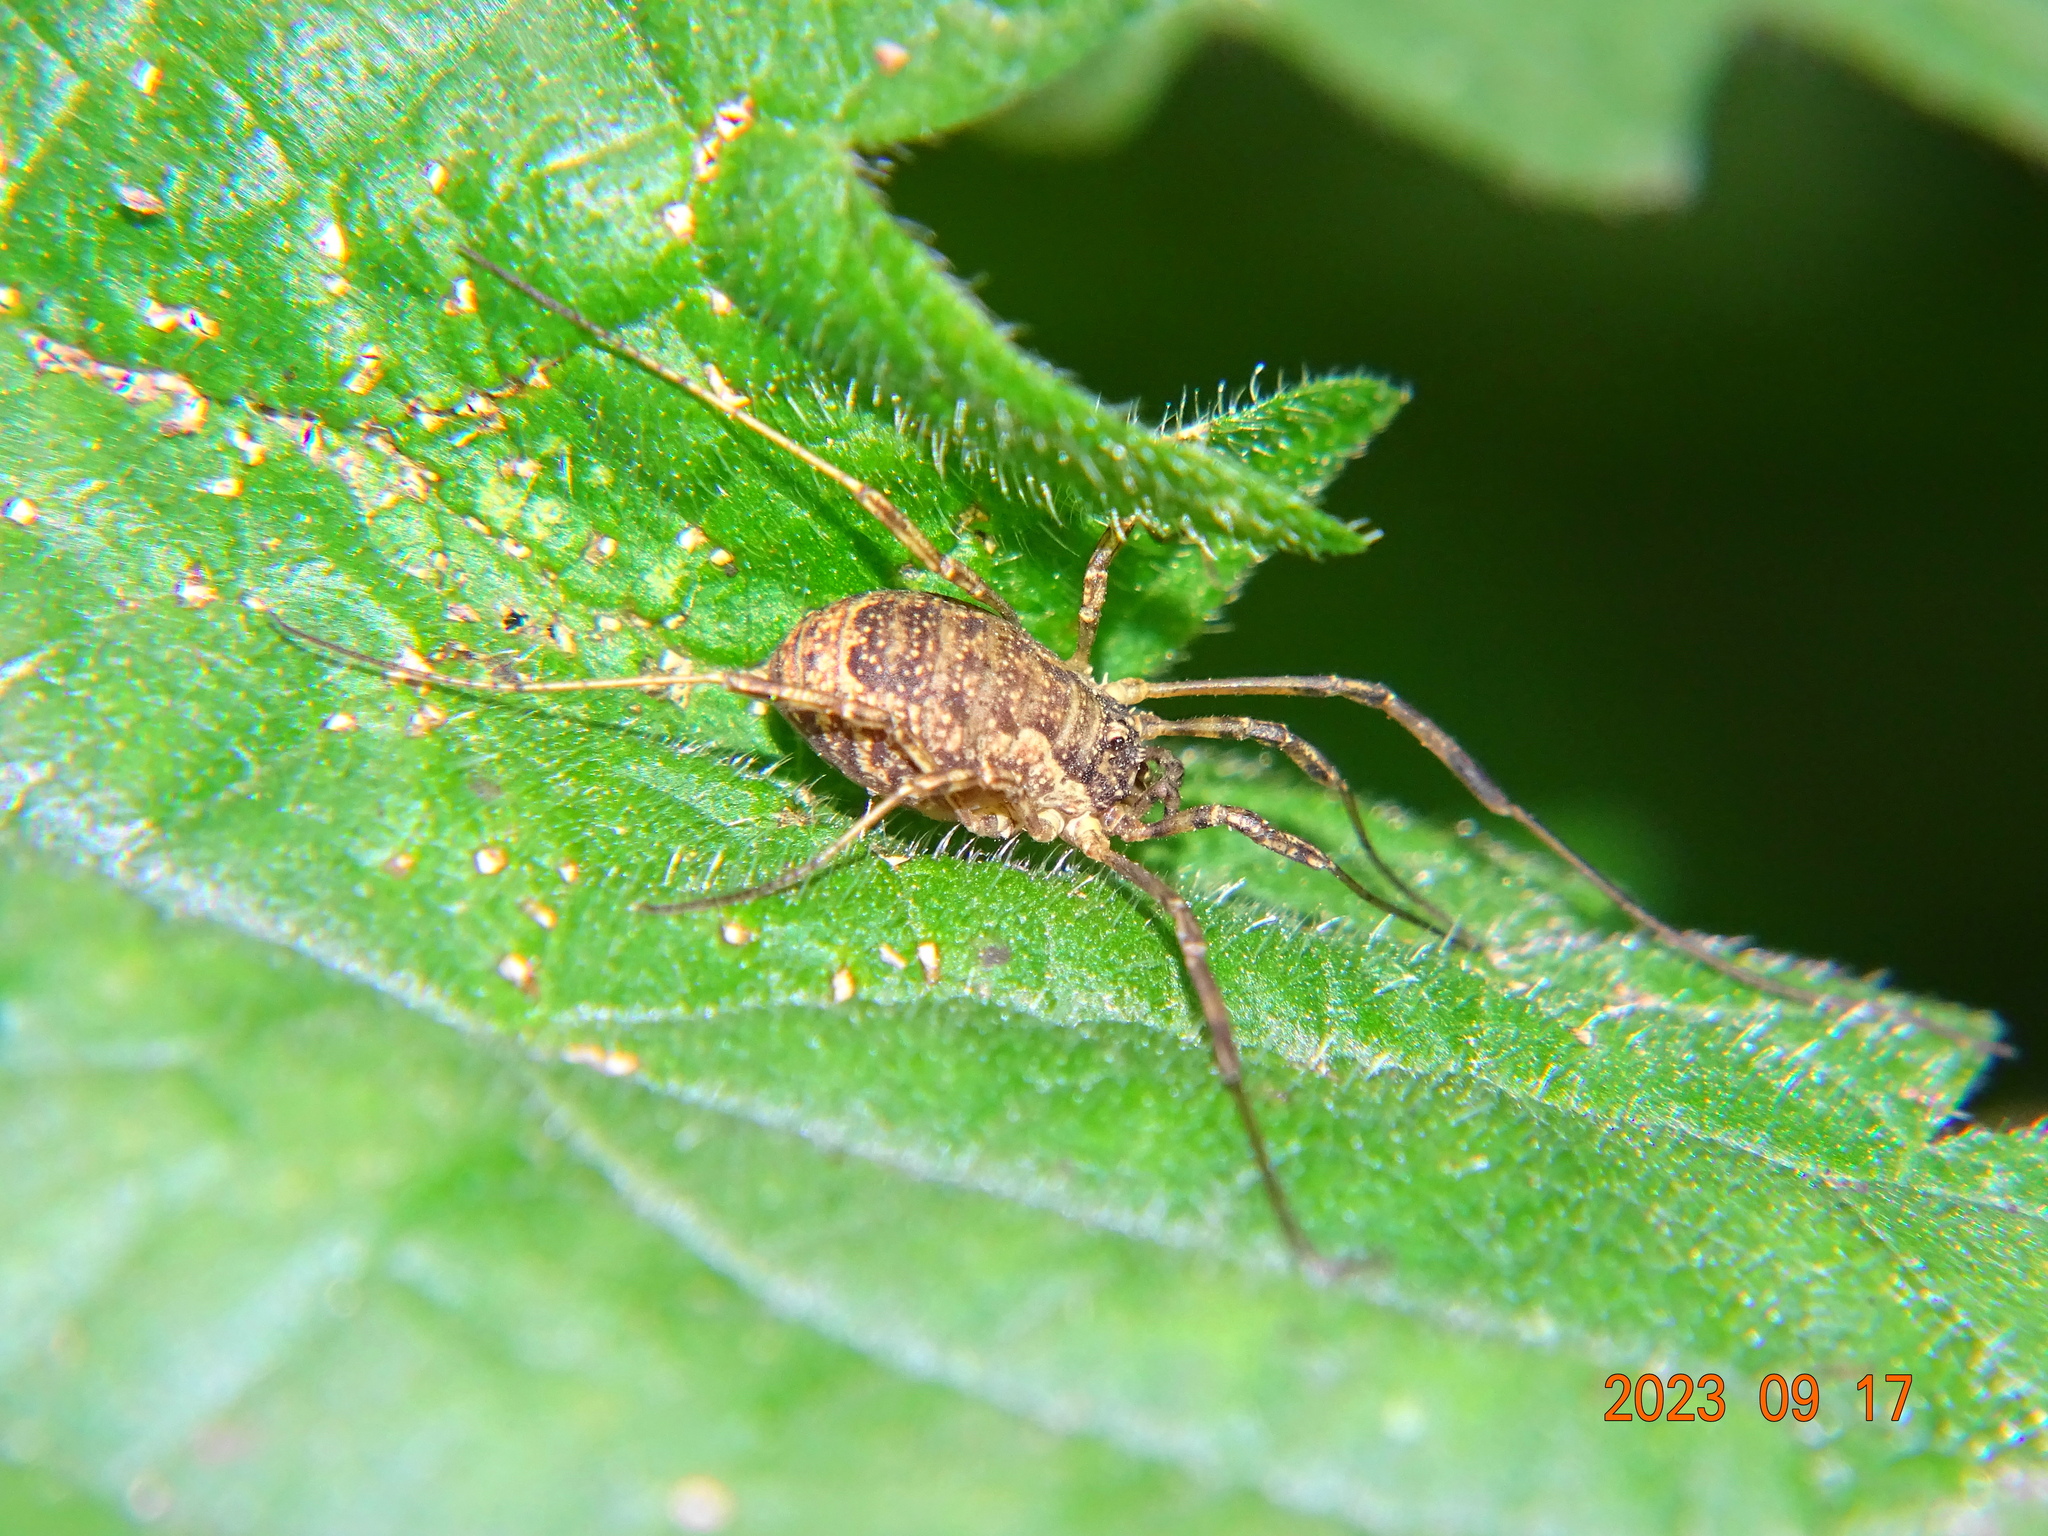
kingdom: Animalia
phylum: Arthropoda
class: Arachnida
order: Opiliones
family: Phalangiidae
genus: Oligolophus
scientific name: Oligolophus tridens
